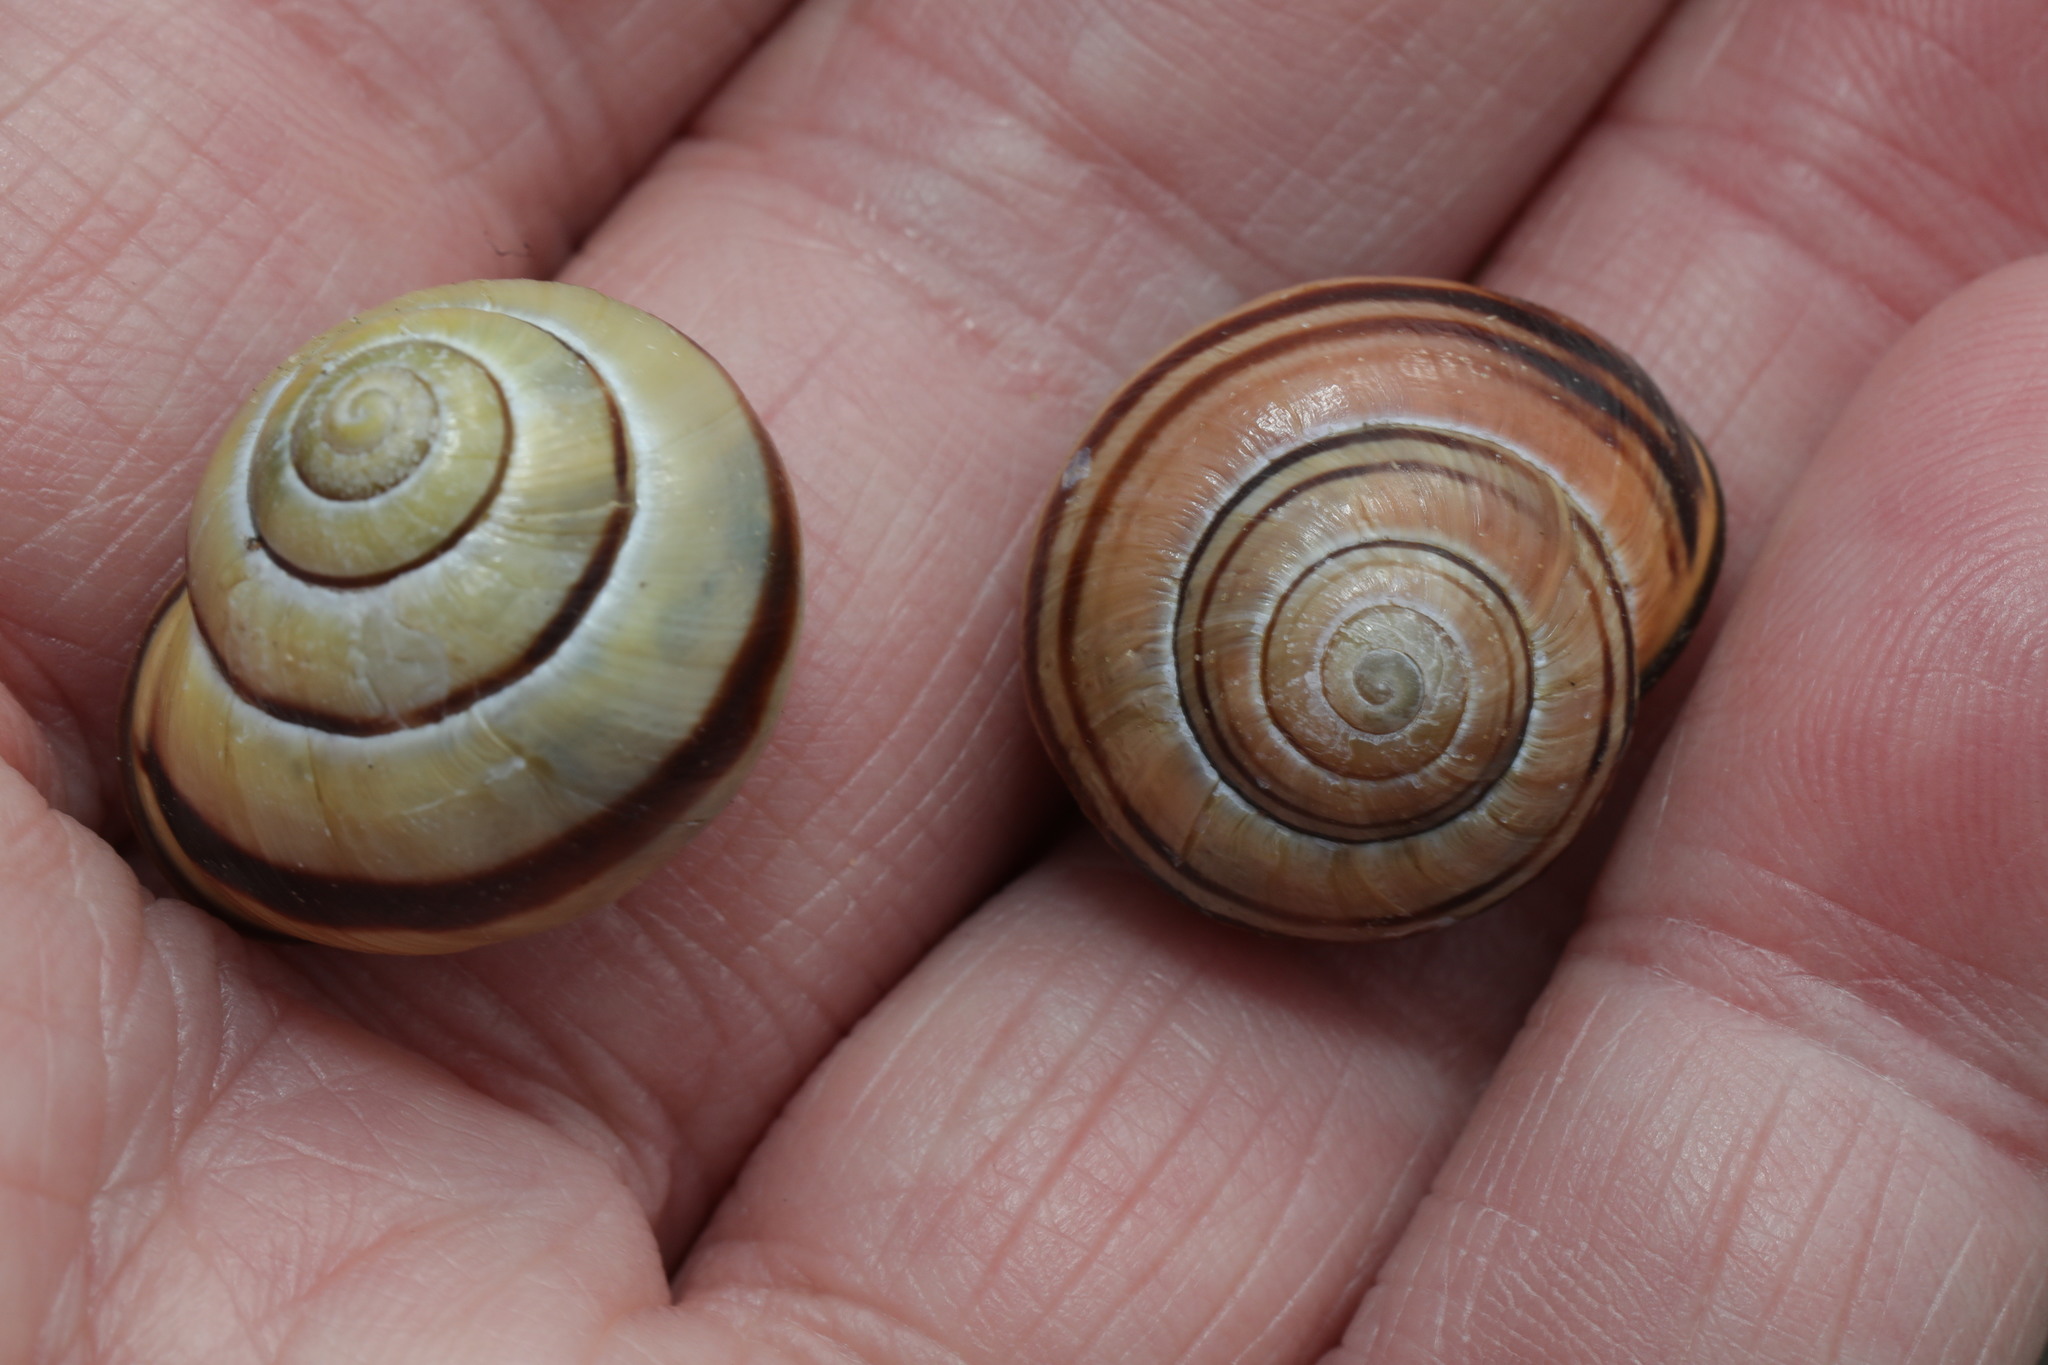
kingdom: Animalia
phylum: Mollusca
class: Gastropoda
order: Stylommatophora
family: Helicidae
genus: Cepaea
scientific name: Cepaea nemoralis
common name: Grovesnail
